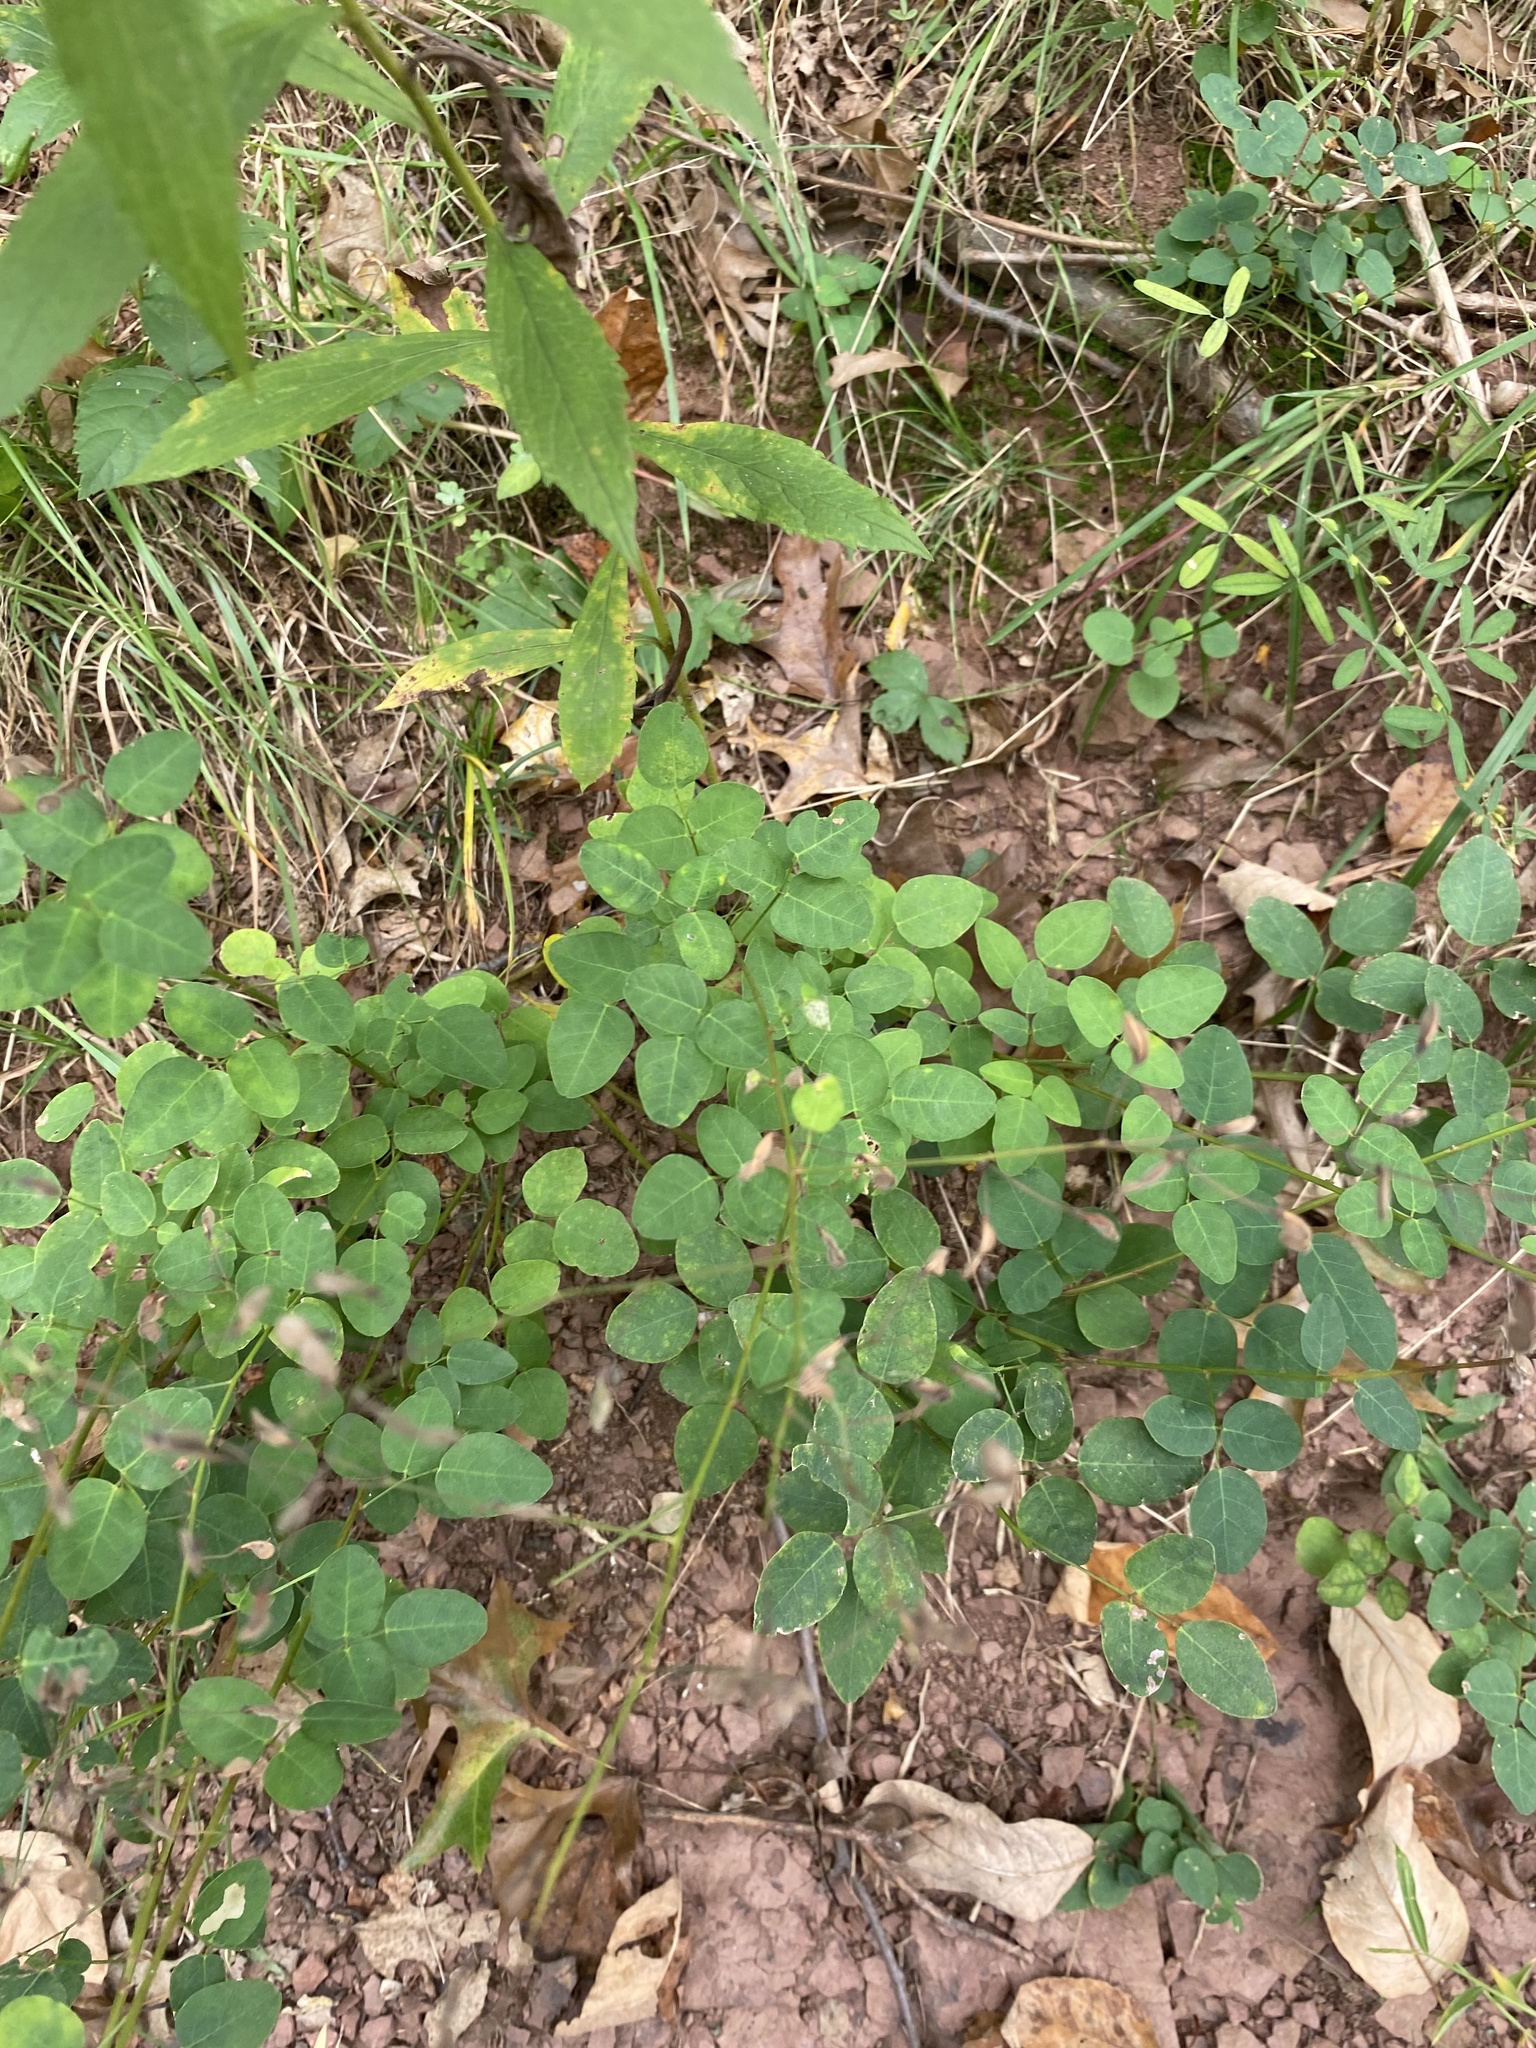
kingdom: Plantae
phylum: Tracheophyta
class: Magnoliopsida
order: Fabales
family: Fabaceae
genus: Desmodium
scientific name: Desmodium marilandicum
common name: Maryland tick-trefoil
